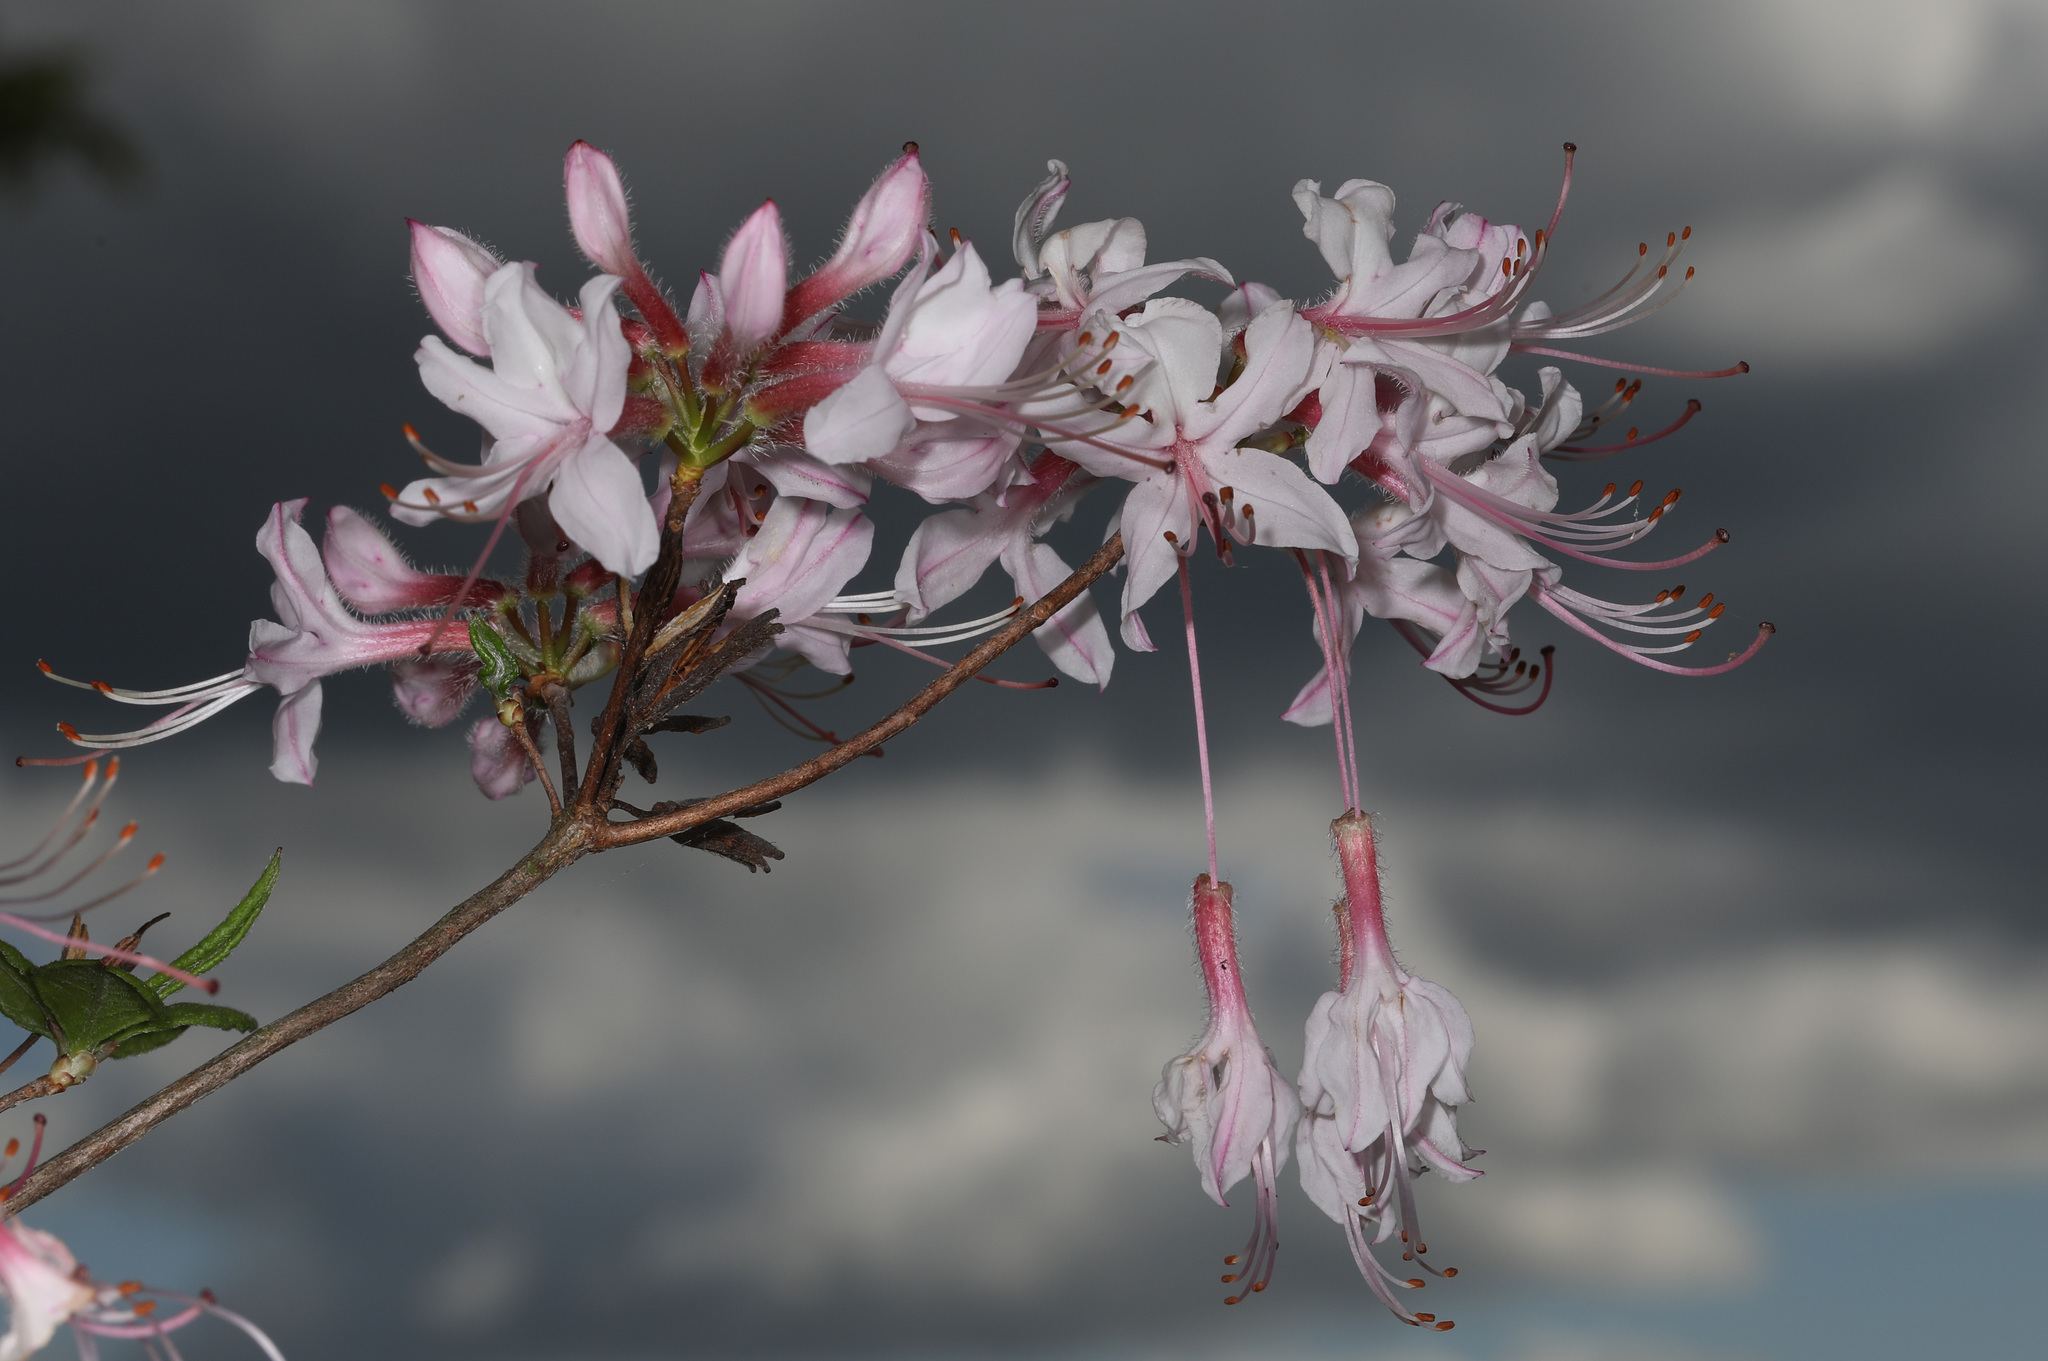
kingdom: Plantae
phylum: Tracheophyta
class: Magnoliopsida
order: Ericales
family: Ericaceae
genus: Rhododendron
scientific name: Rhododendron periclymenoides
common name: Election-pink
